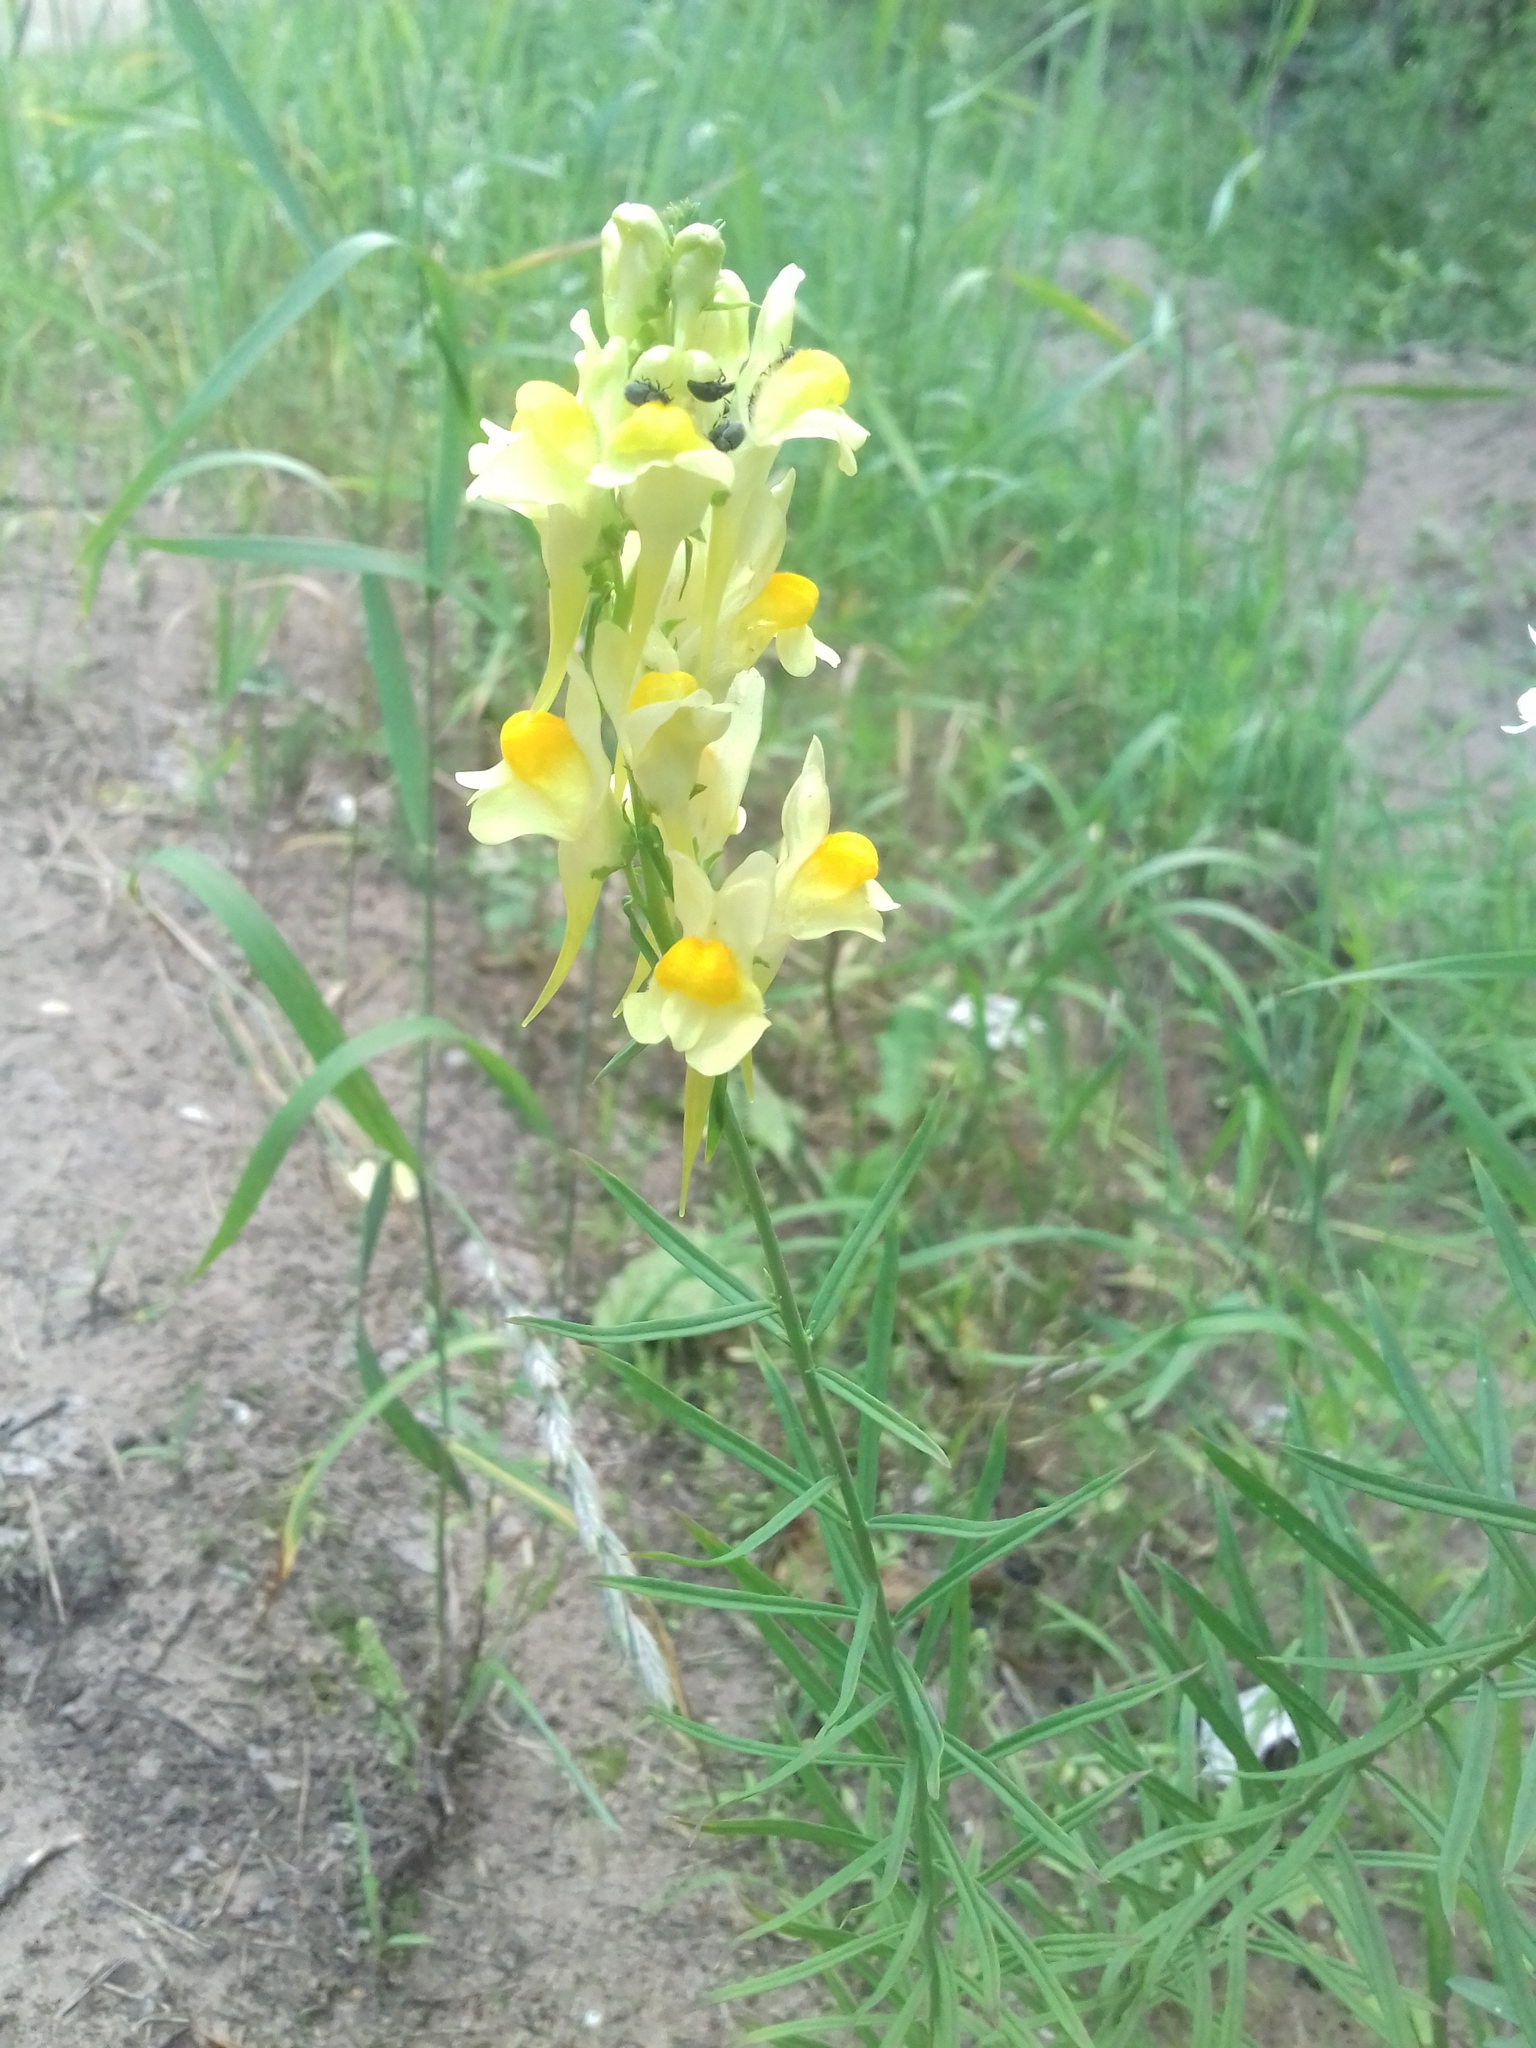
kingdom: Plantae
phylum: Tracheophyta
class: Magnoliopsida
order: Lamiales
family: Plantaginaceae
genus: Linaria
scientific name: Linaria vulgaris
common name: Butter and eggs
